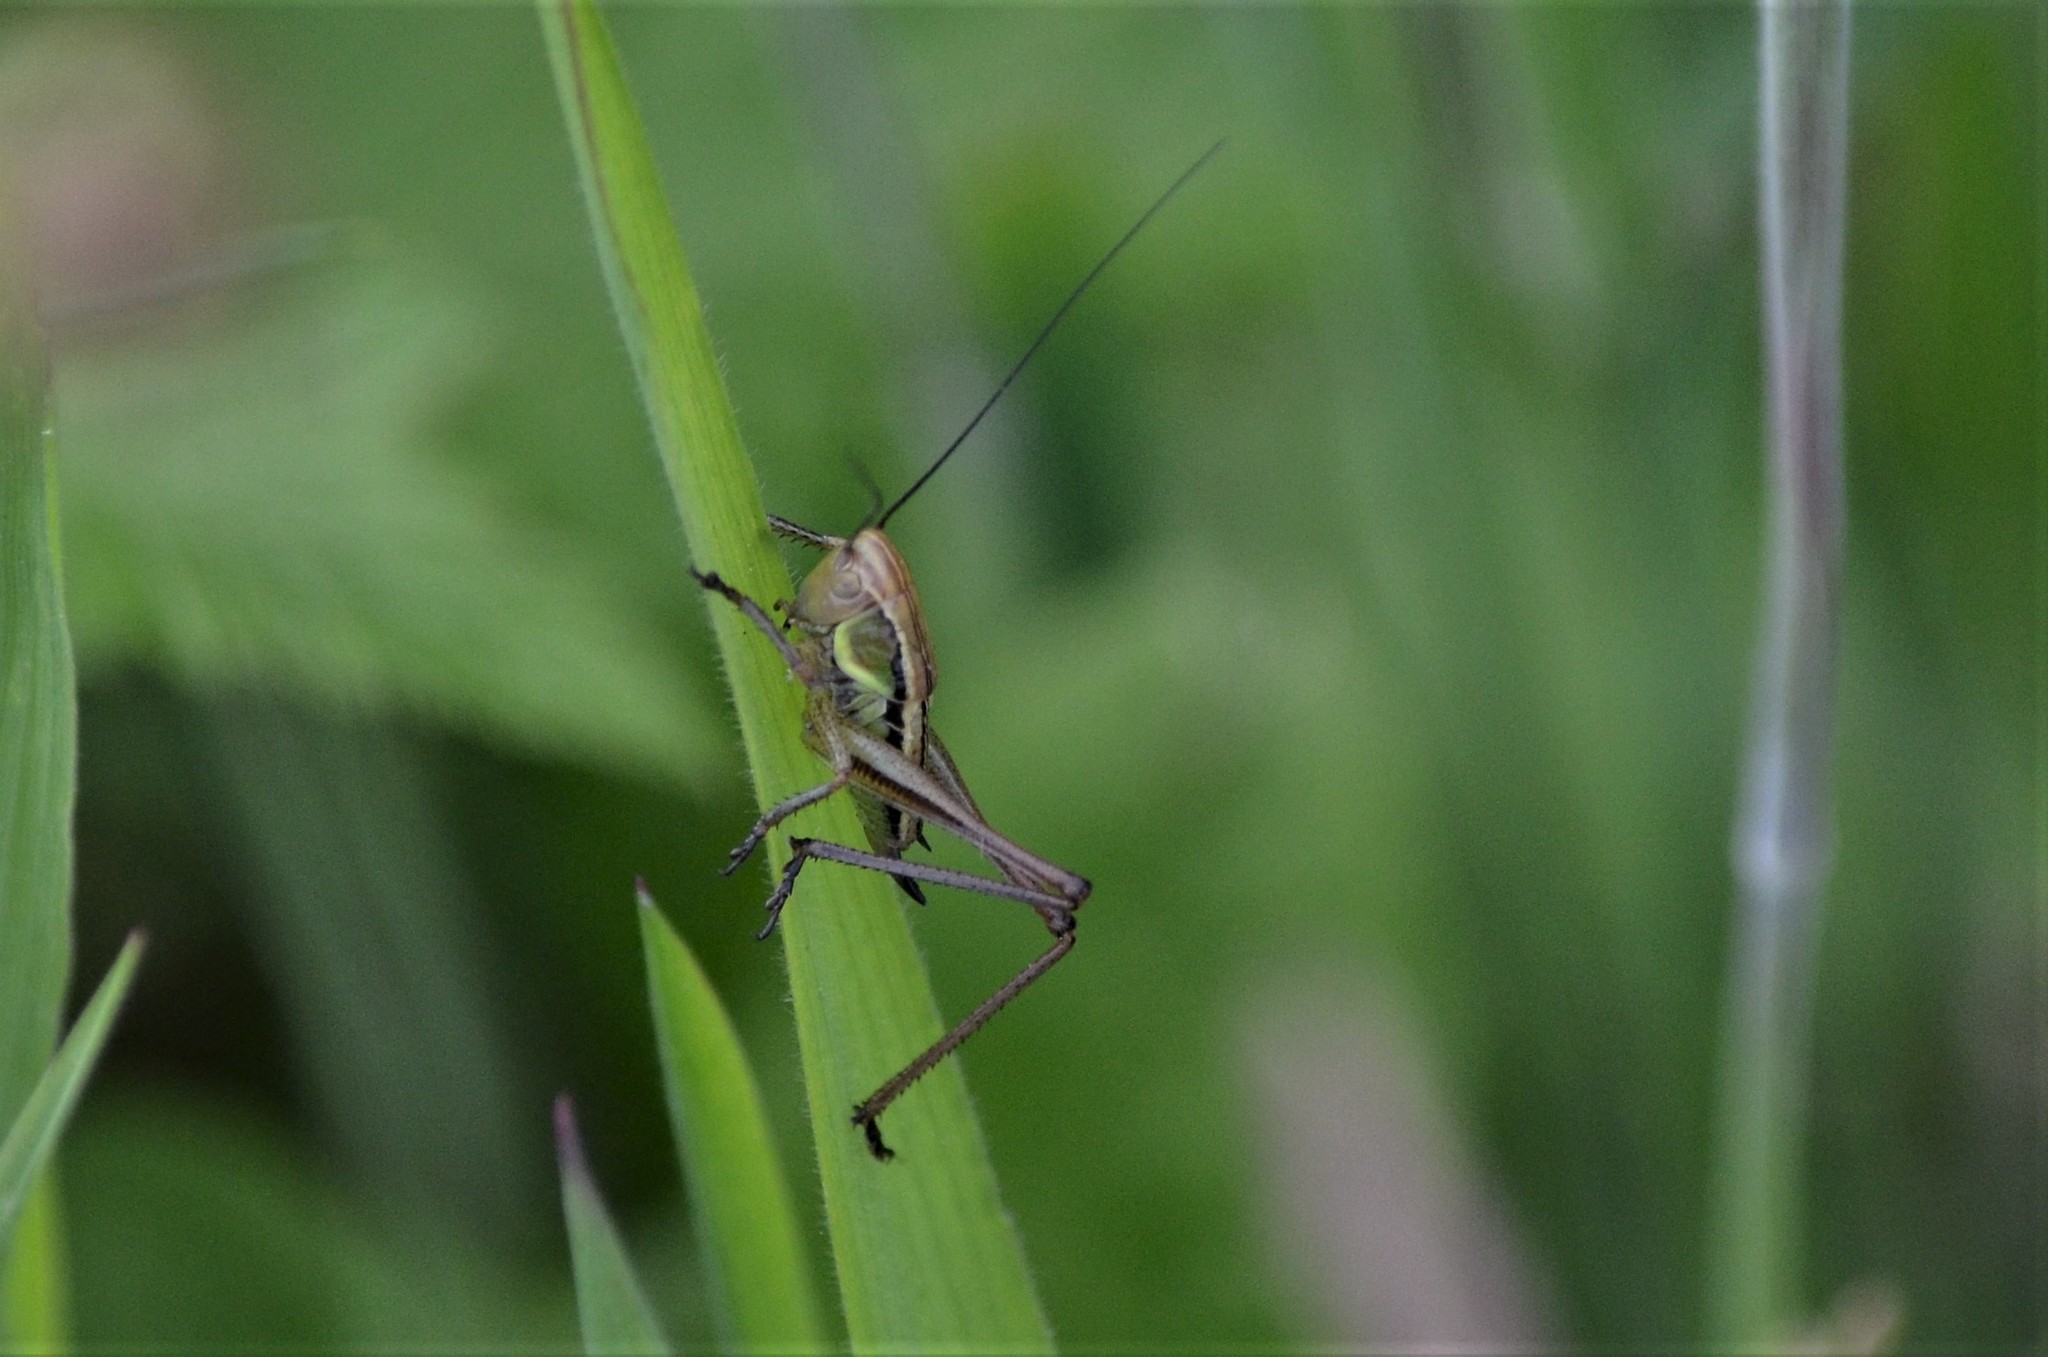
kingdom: Animalia
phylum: Arthropoda
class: Insecta
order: Orthoptera
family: Tettigoniidae
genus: Roeseliana
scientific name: Roeseliana roeselii
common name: Roesel's bush cricket
